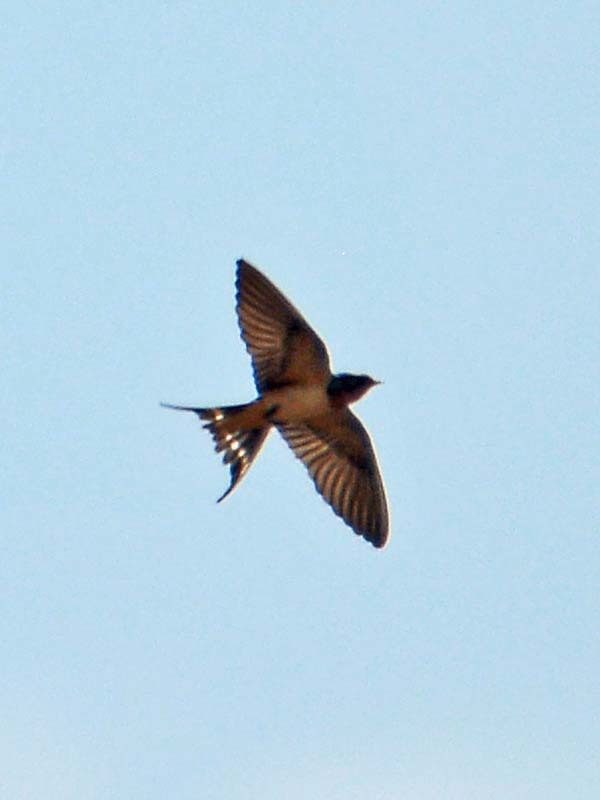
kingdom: Animalia
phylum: Chordata
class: Aves
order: Passeriformes
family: Hirundinidae
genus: Hirundo
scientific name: Hirundo rustica
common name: Barn swallow
